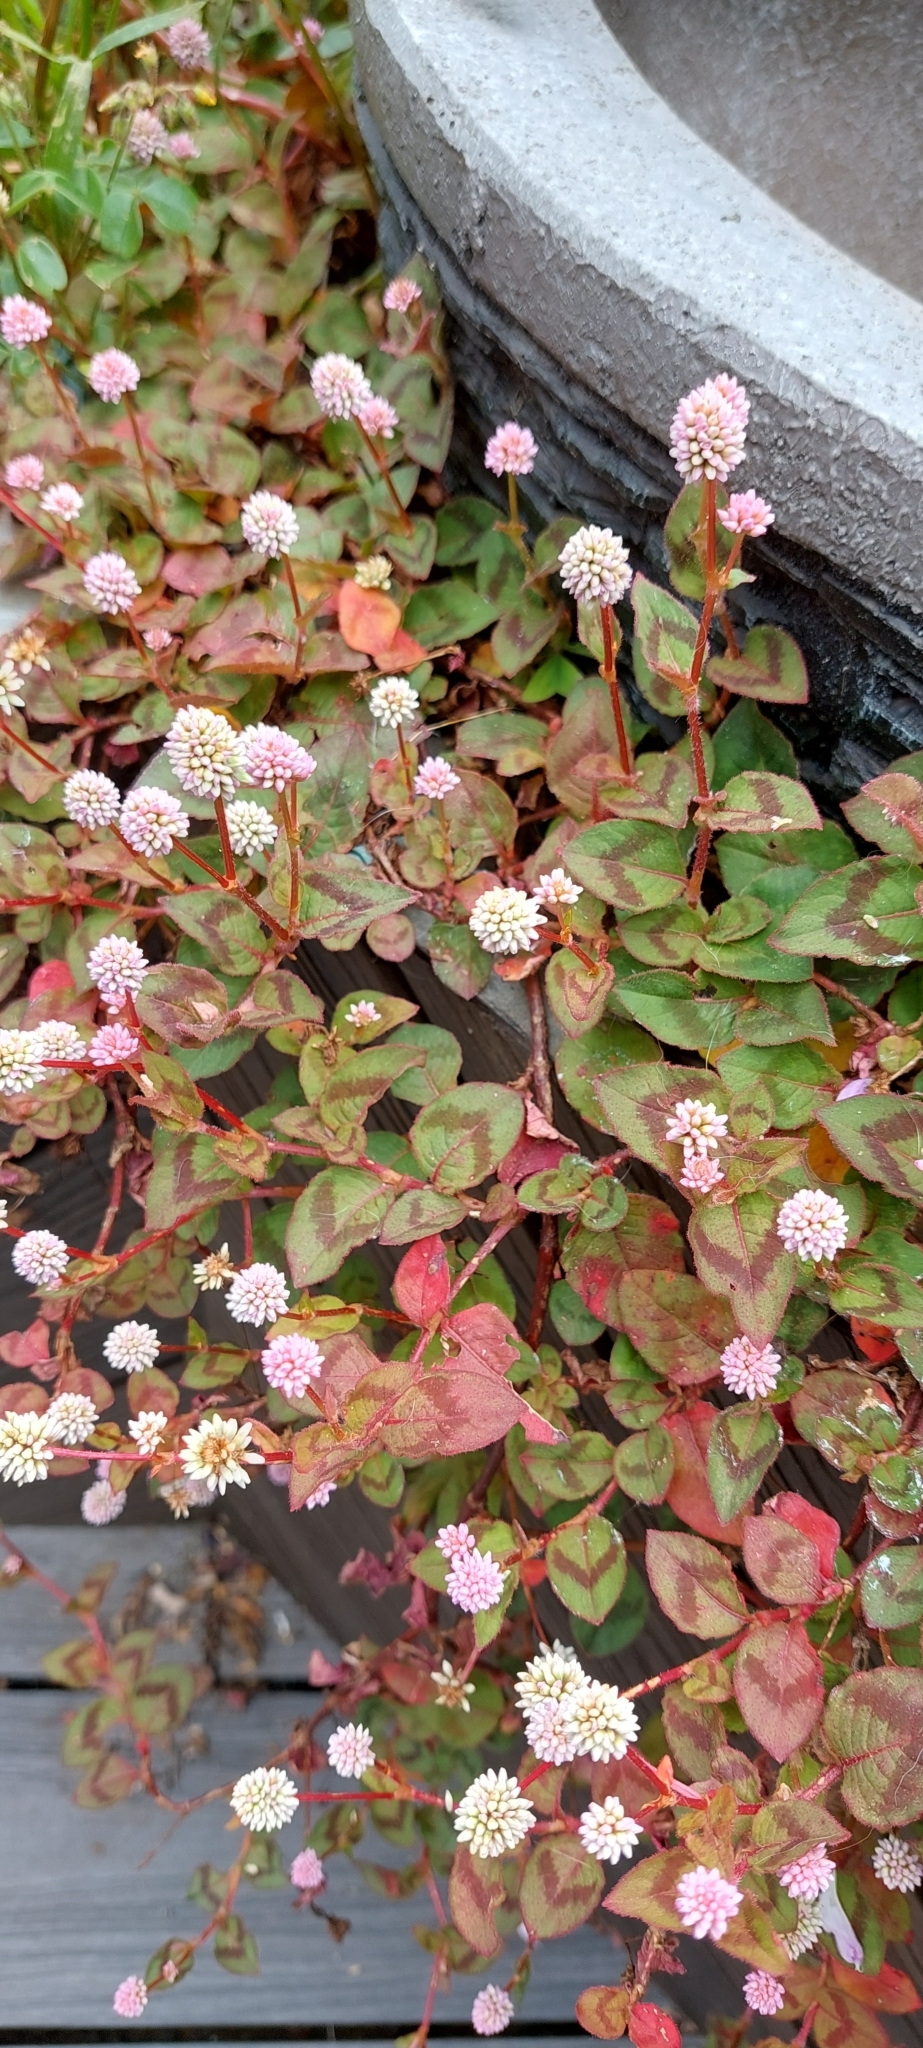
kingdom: Plantae
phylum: Tracheophyta
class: Magnoliopsida
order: Caryophyllales
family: Polygonaceae
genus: Persicaria
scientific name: Persicaria capitata
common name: Pinkhead smartweed
